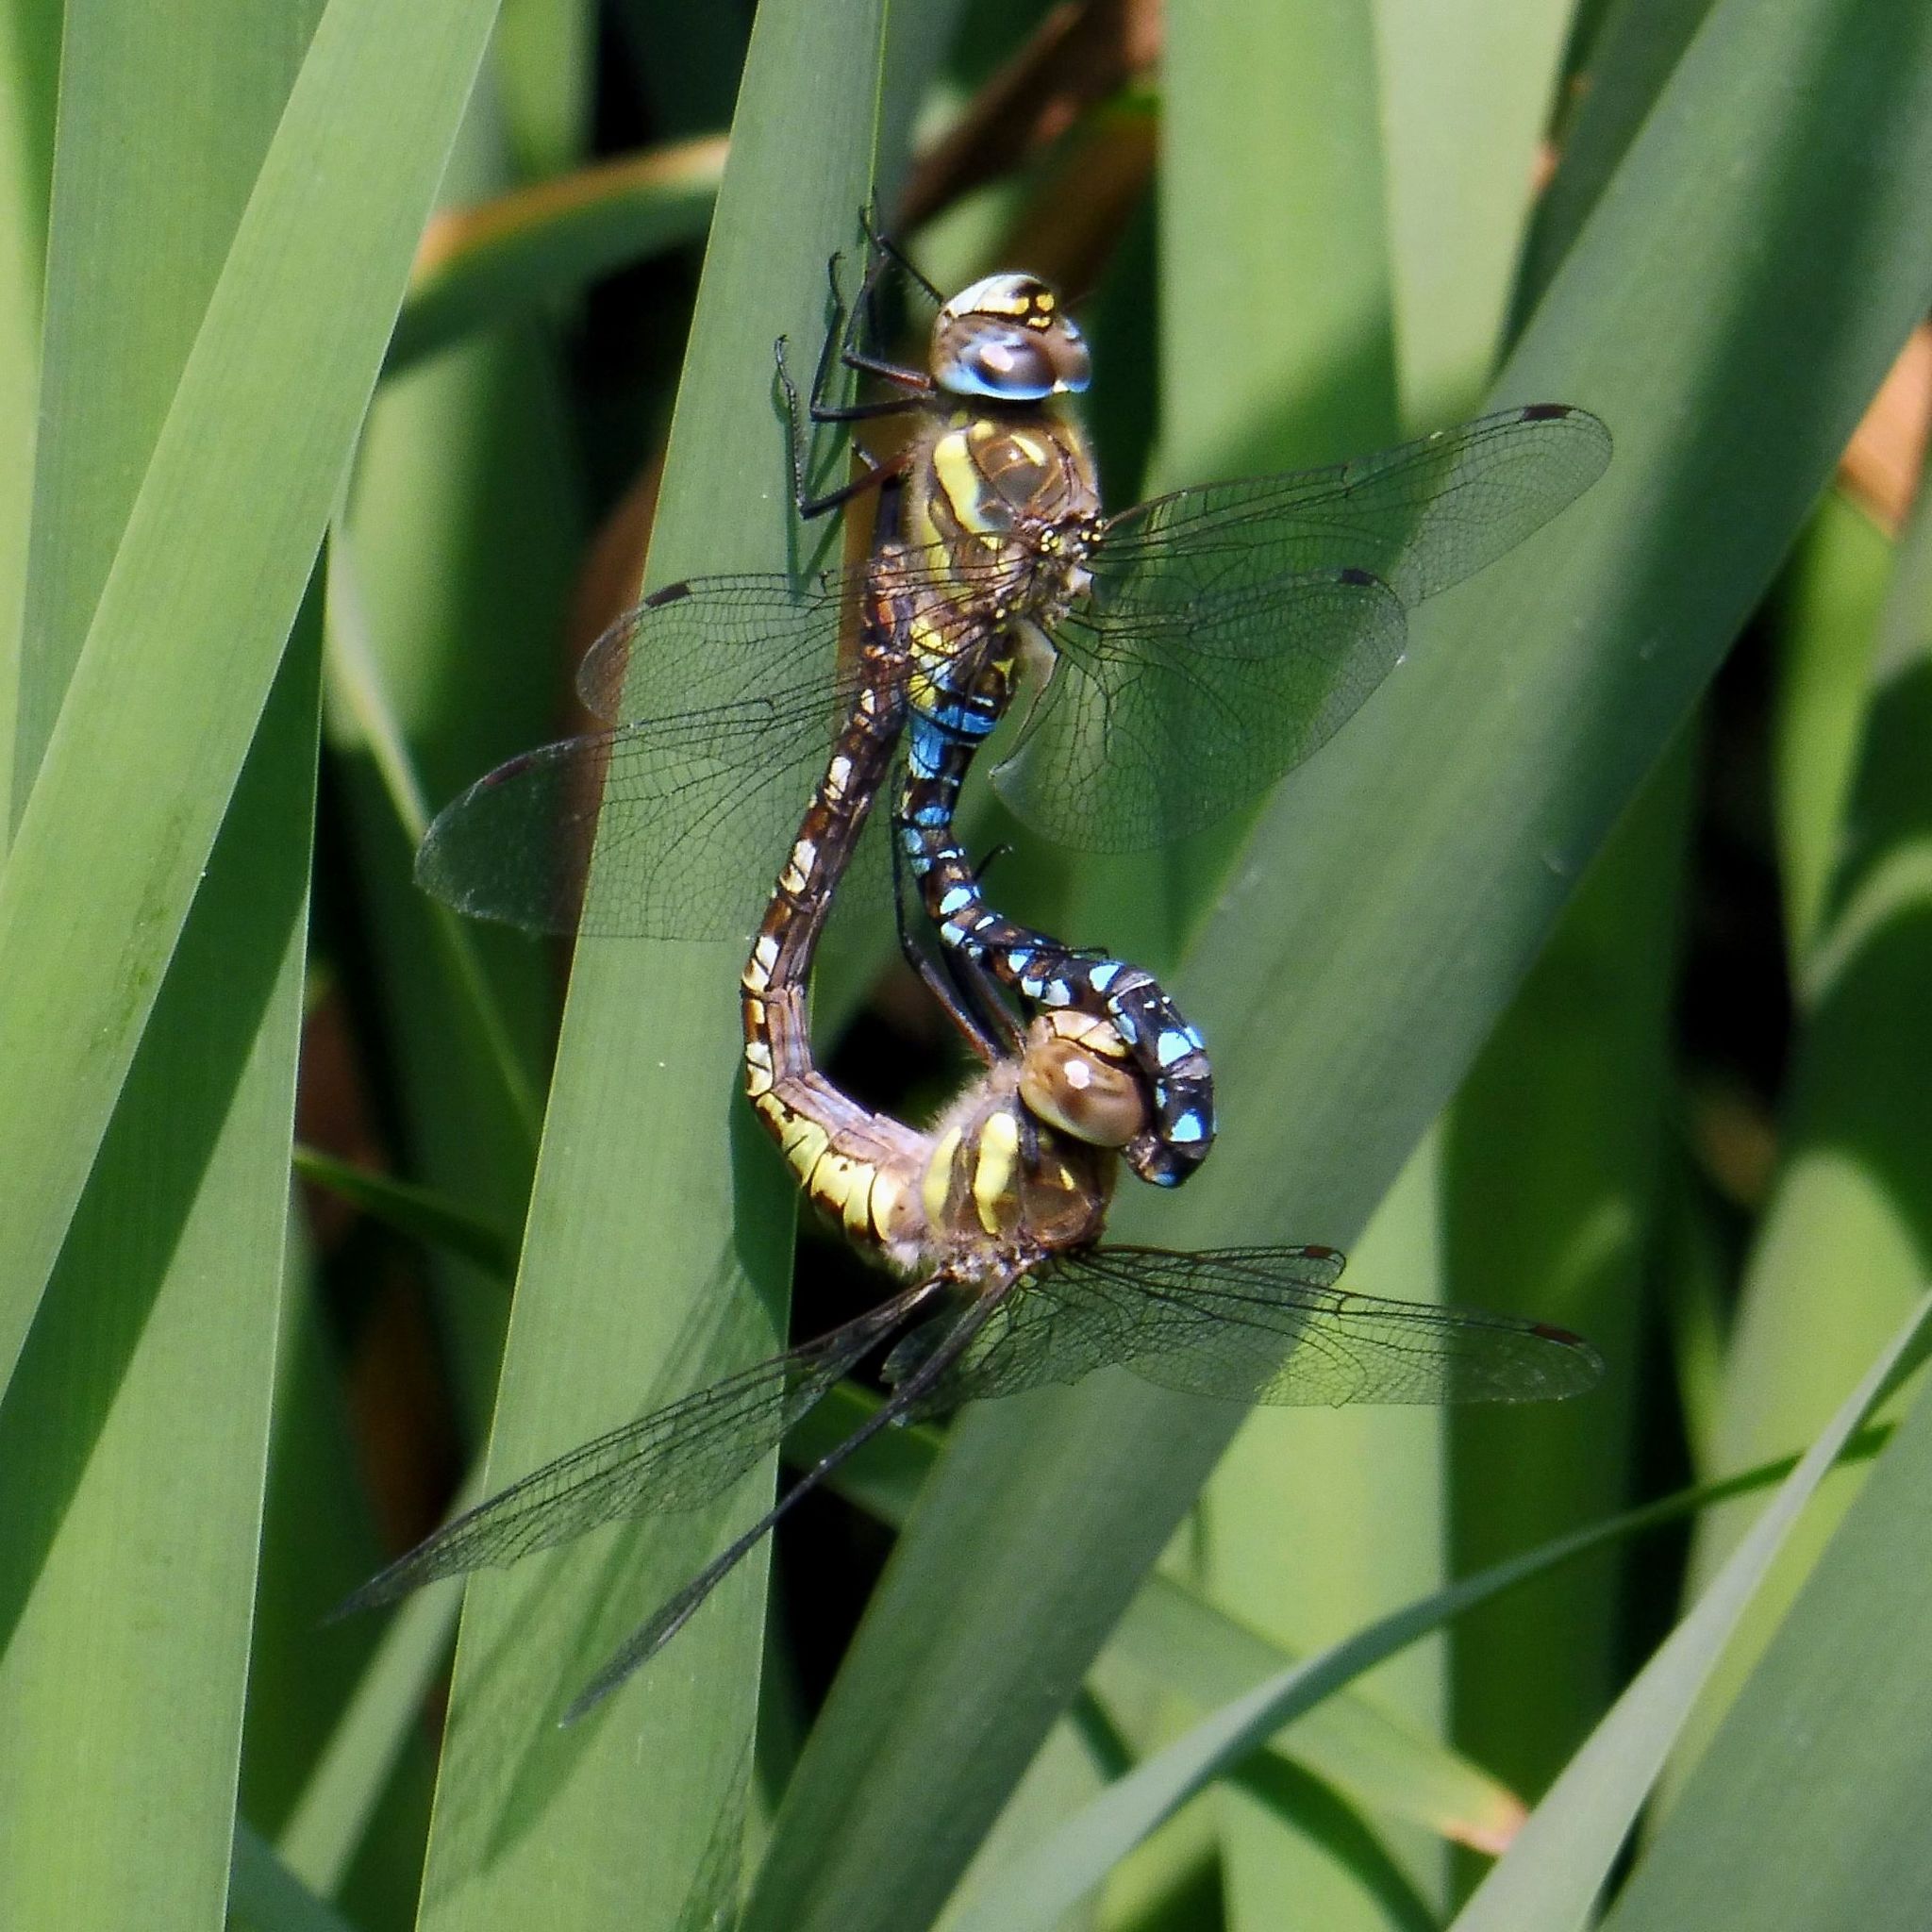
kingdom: Animalia
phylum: Arthropoda
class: Insecta
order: Odonata
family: Aeshnidae
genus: Aeshna
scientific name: Aeshna mixta
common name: Migrant hawker
